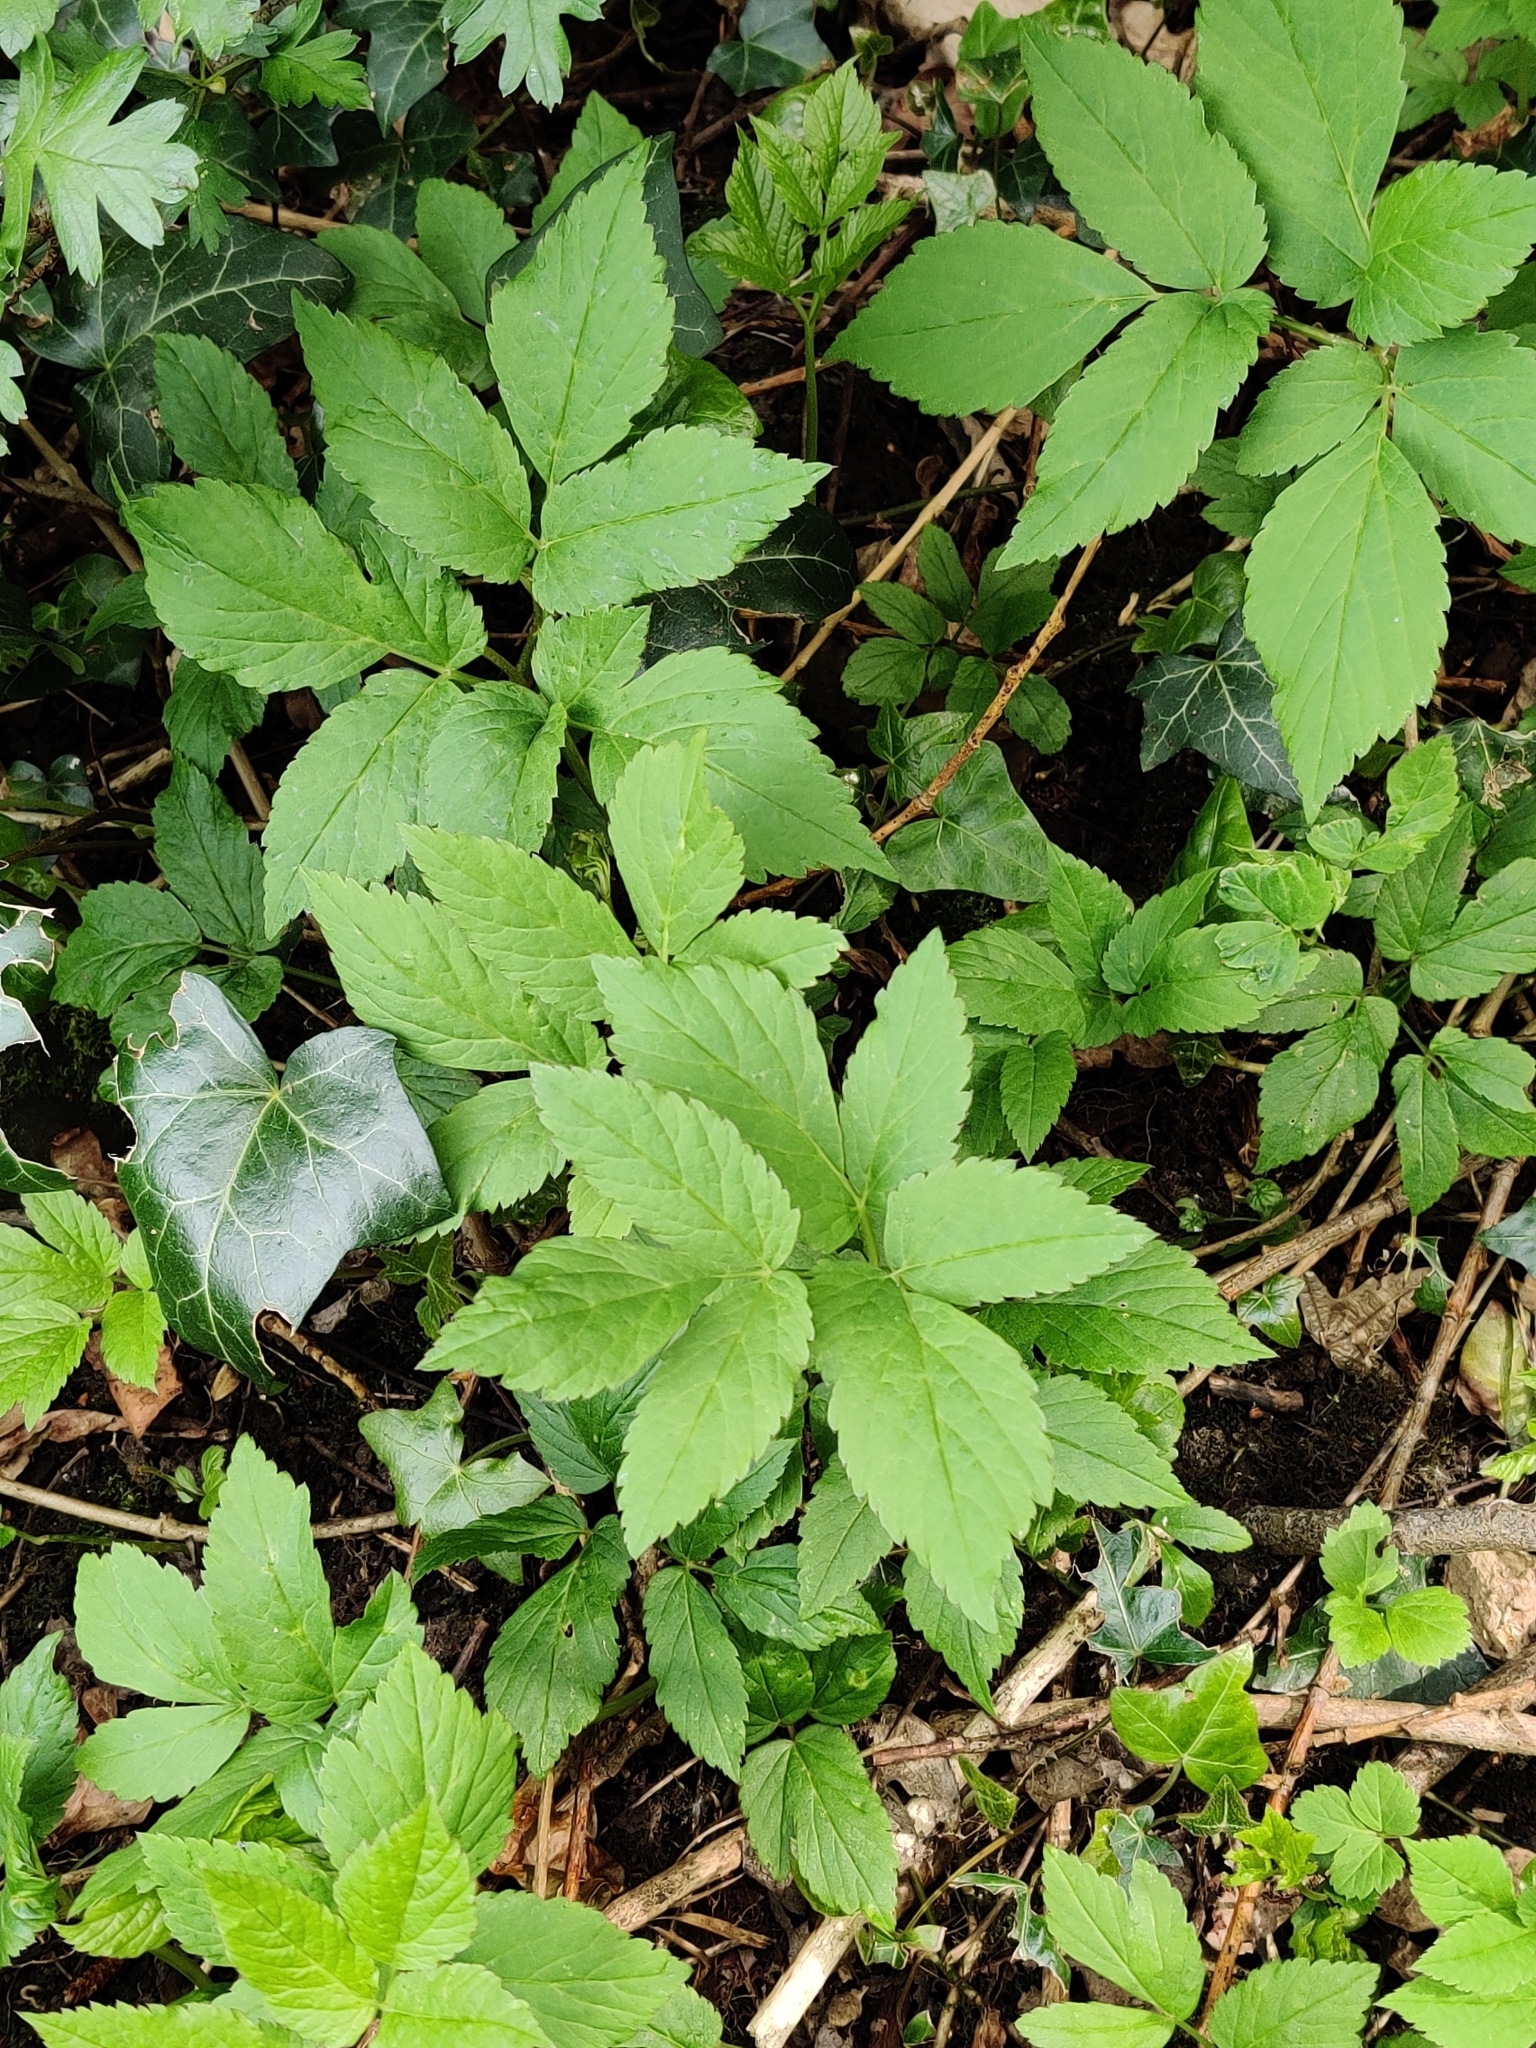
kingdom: Plantae
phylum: Tracheophyta
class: Magnoliopsida
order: Apiales
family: Apiaceae
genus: Aegopodium
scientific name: Aegopodium podagraria
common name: Ground-elder
